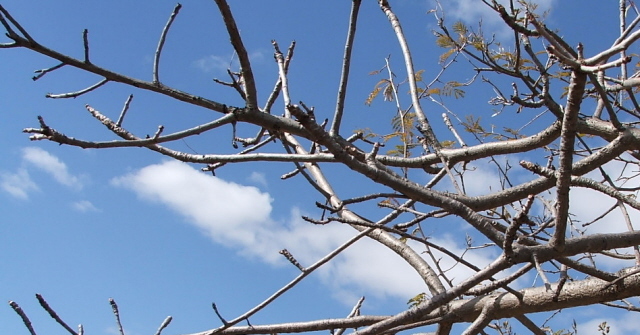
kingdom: Plantae
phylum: Tracheophyta
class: Magnoliopsida
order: Sapindales
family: Anacardiaceae
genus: Lannea
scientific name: Lannea discolor
